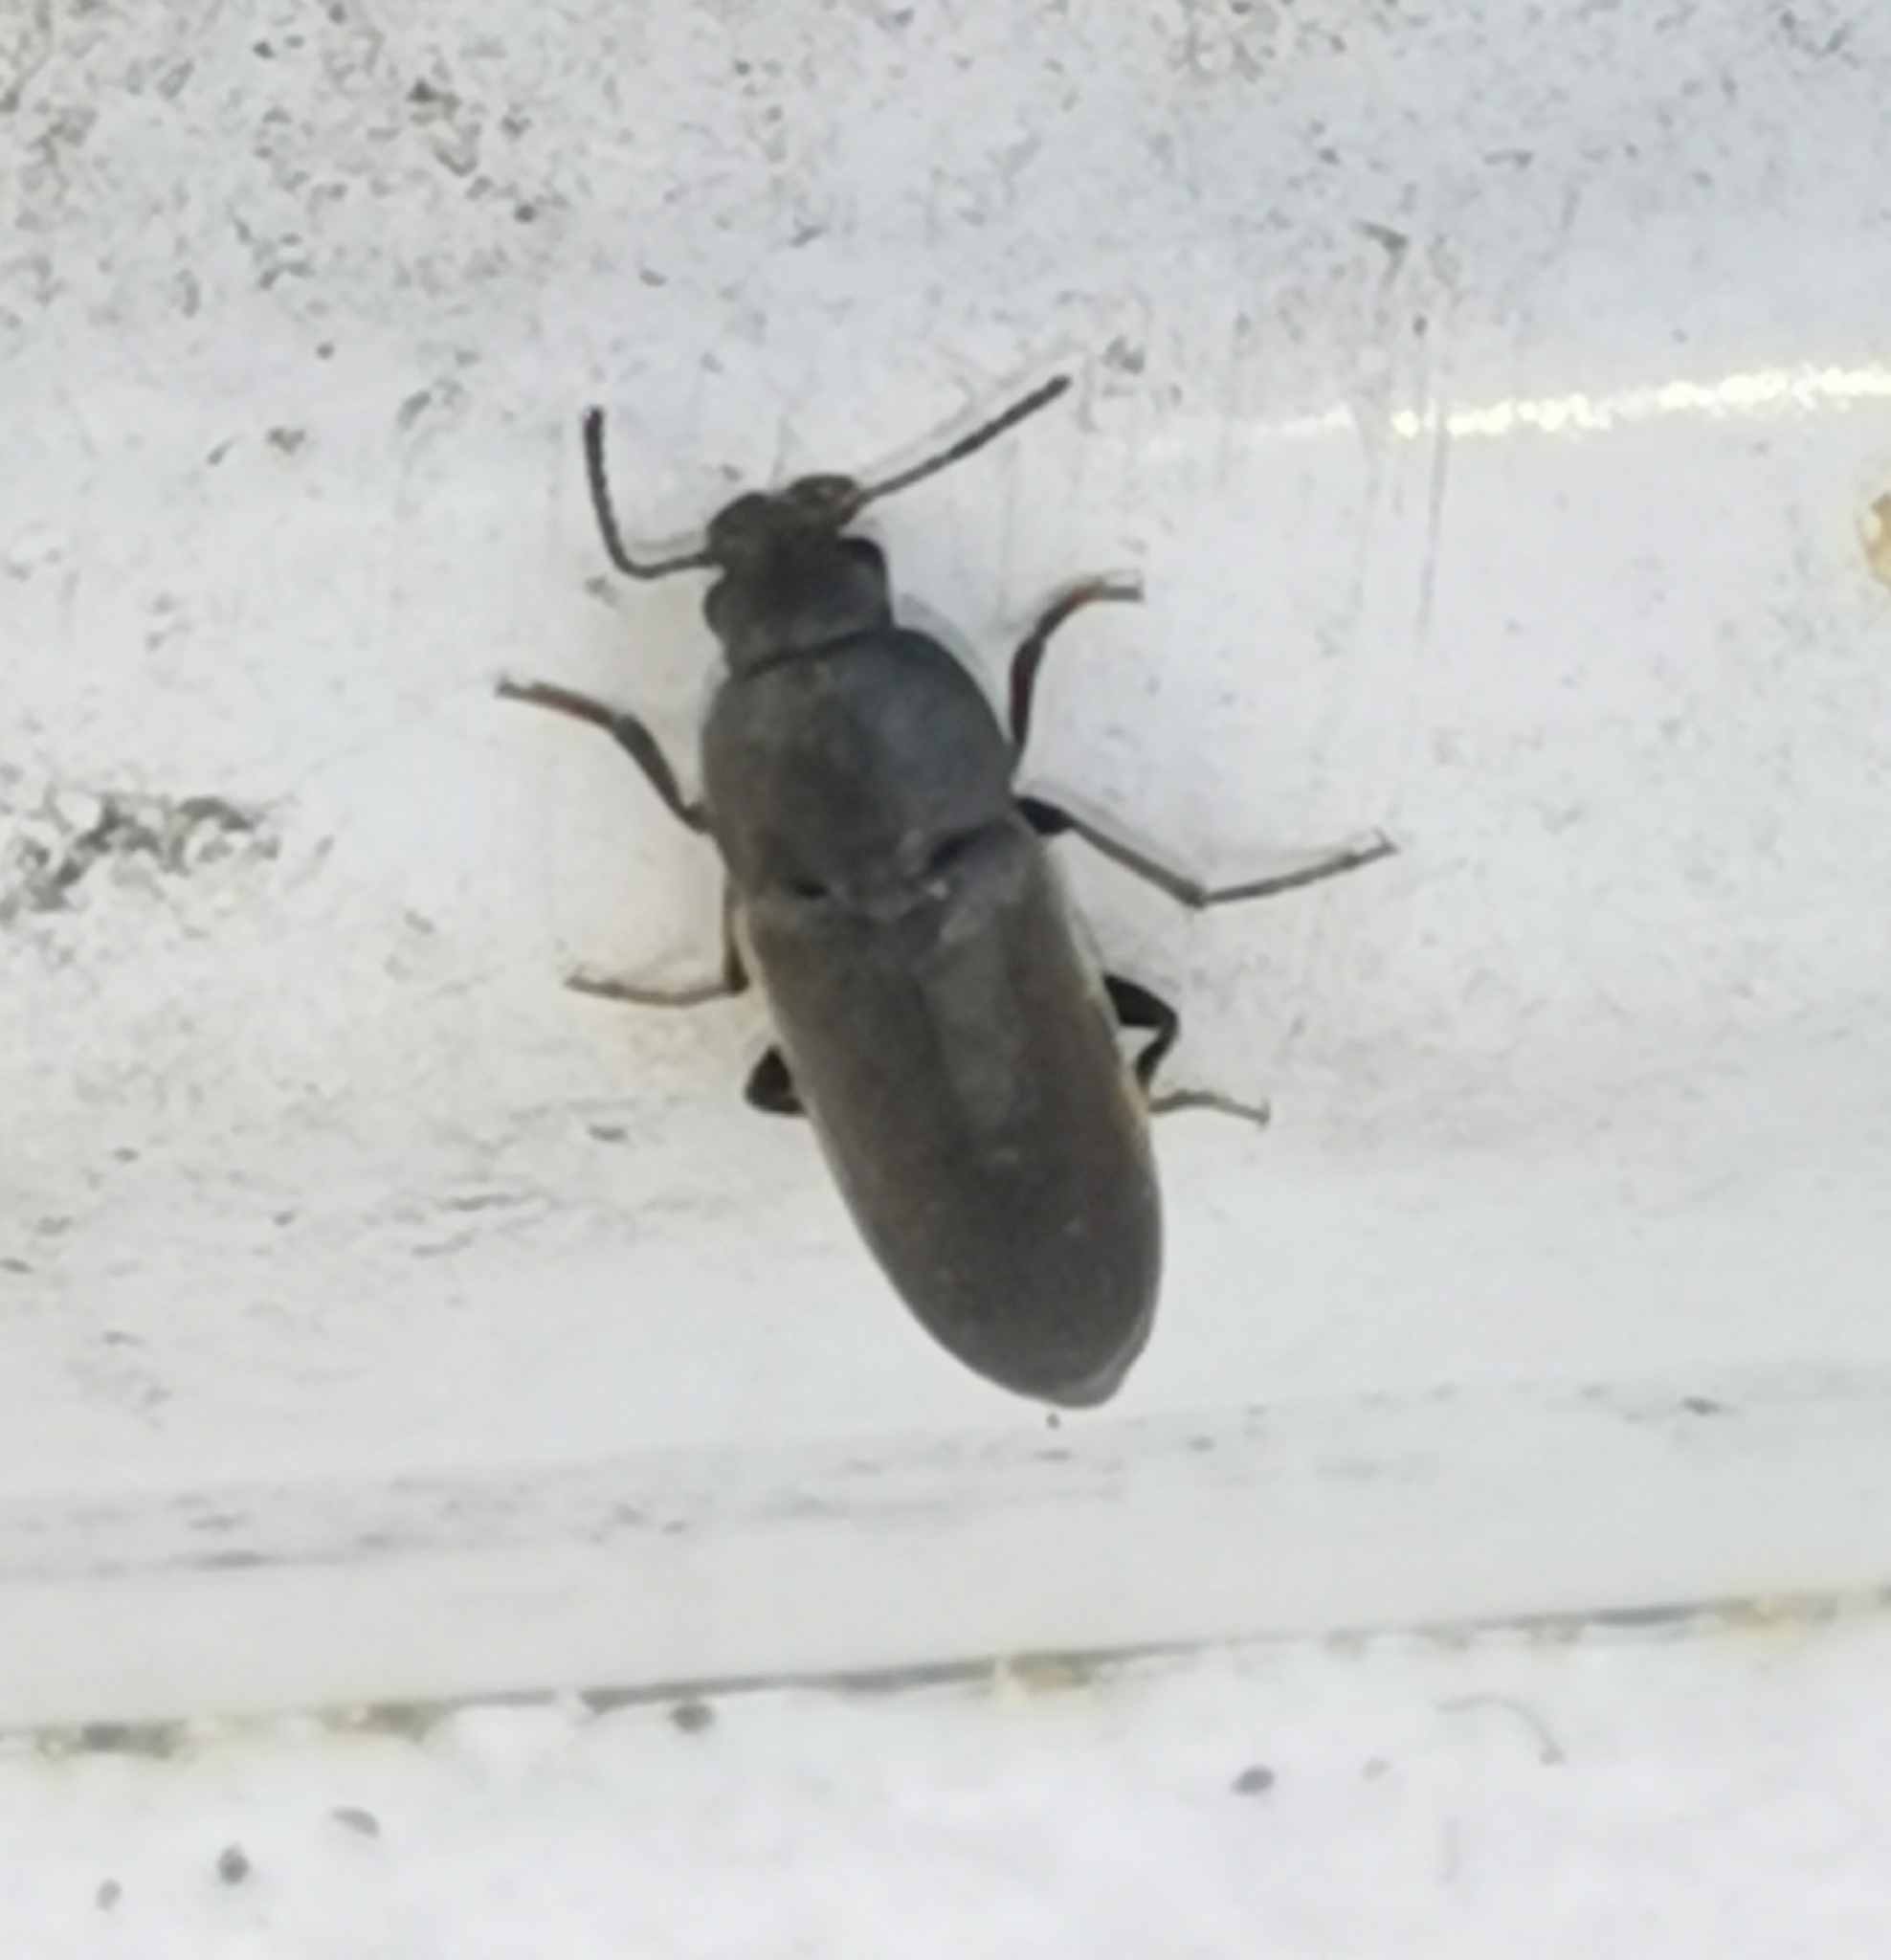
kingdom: Animalia
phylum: Arthropoda
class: Insecta
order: Coleoptera
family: Melandryidae
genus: Xylita
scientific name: Xylita laevigata
